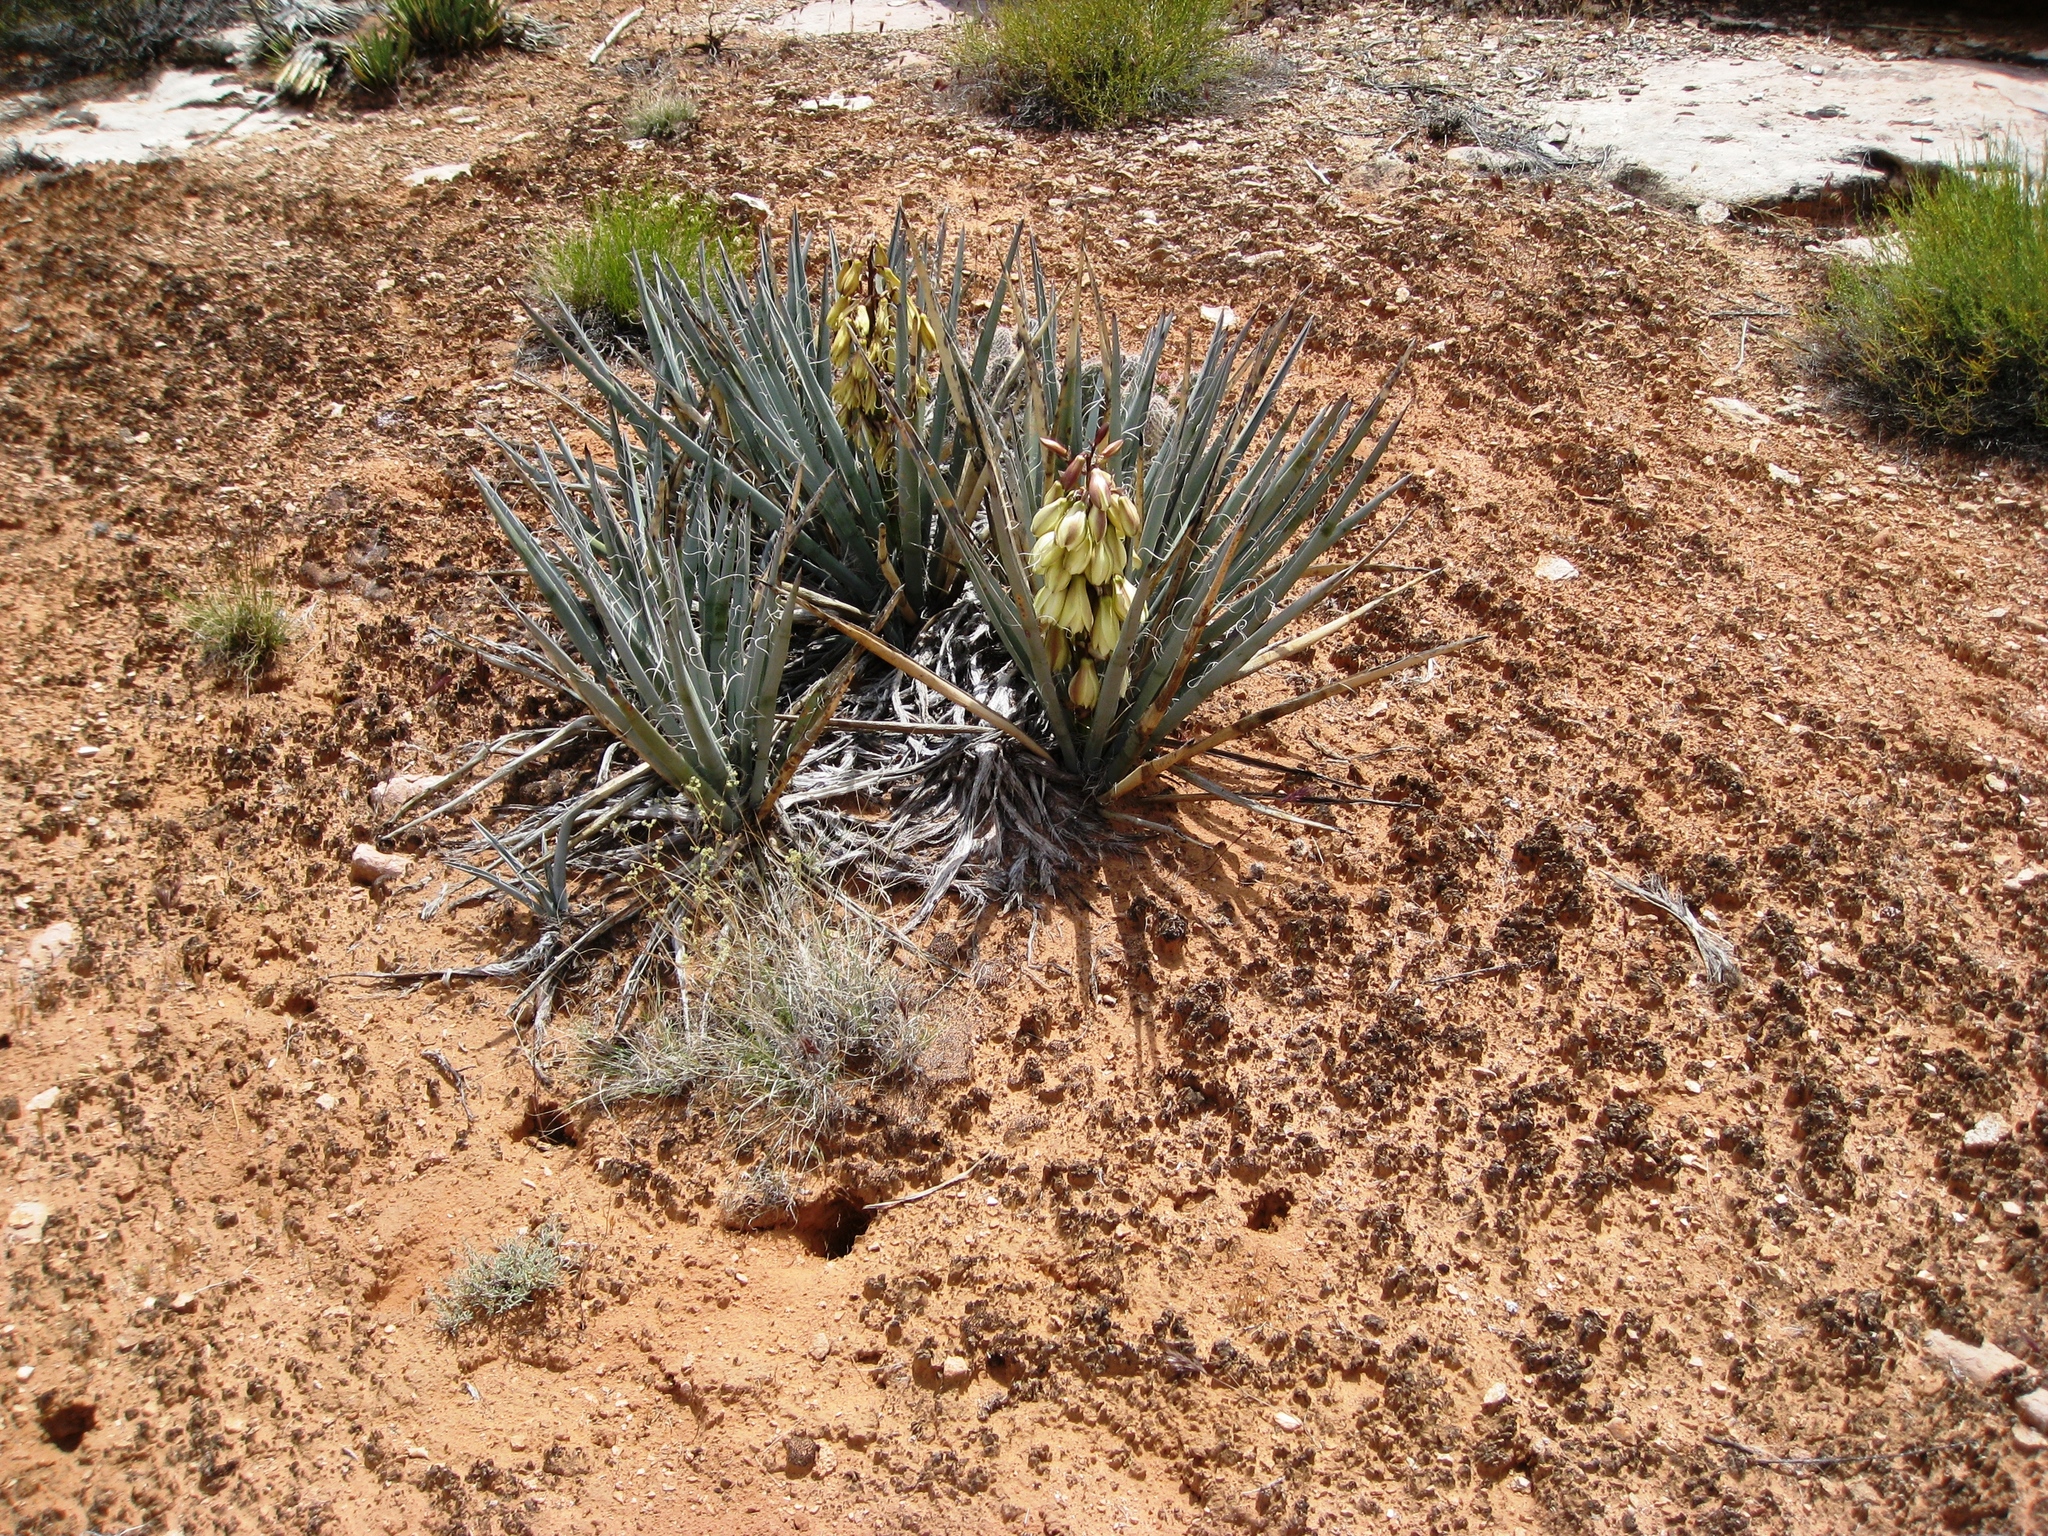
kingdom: Plantae
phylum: Tracheophyta
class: Liliopsida
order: Asparagales
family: Asparagaceae
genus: Yucca
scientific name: Yucca baccata
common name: Banana yucca
